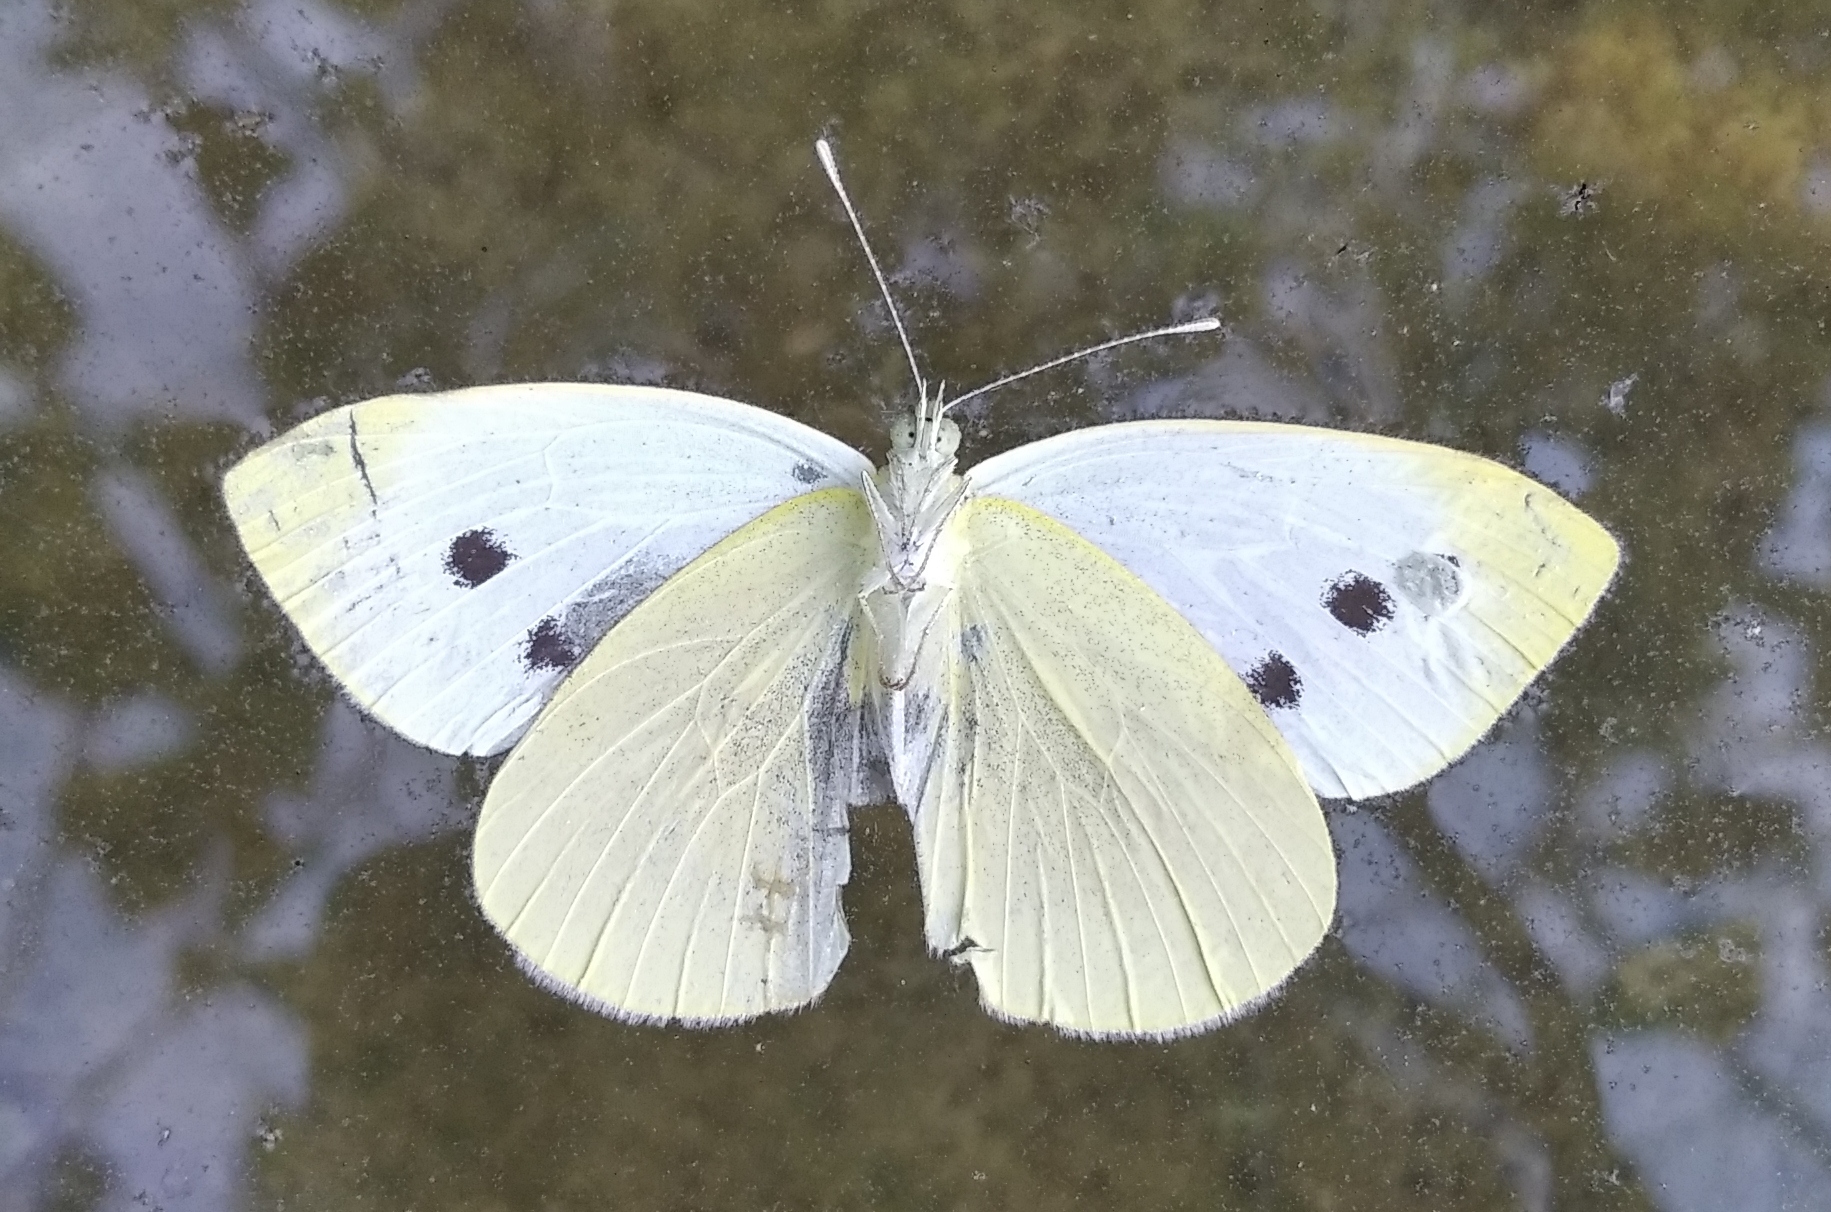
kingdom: Animalia
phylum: Arthropoda
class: Insecta
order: Lepidoptera
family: Pieridae
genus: Pieris
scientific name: Pieris rapae
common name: Small white
